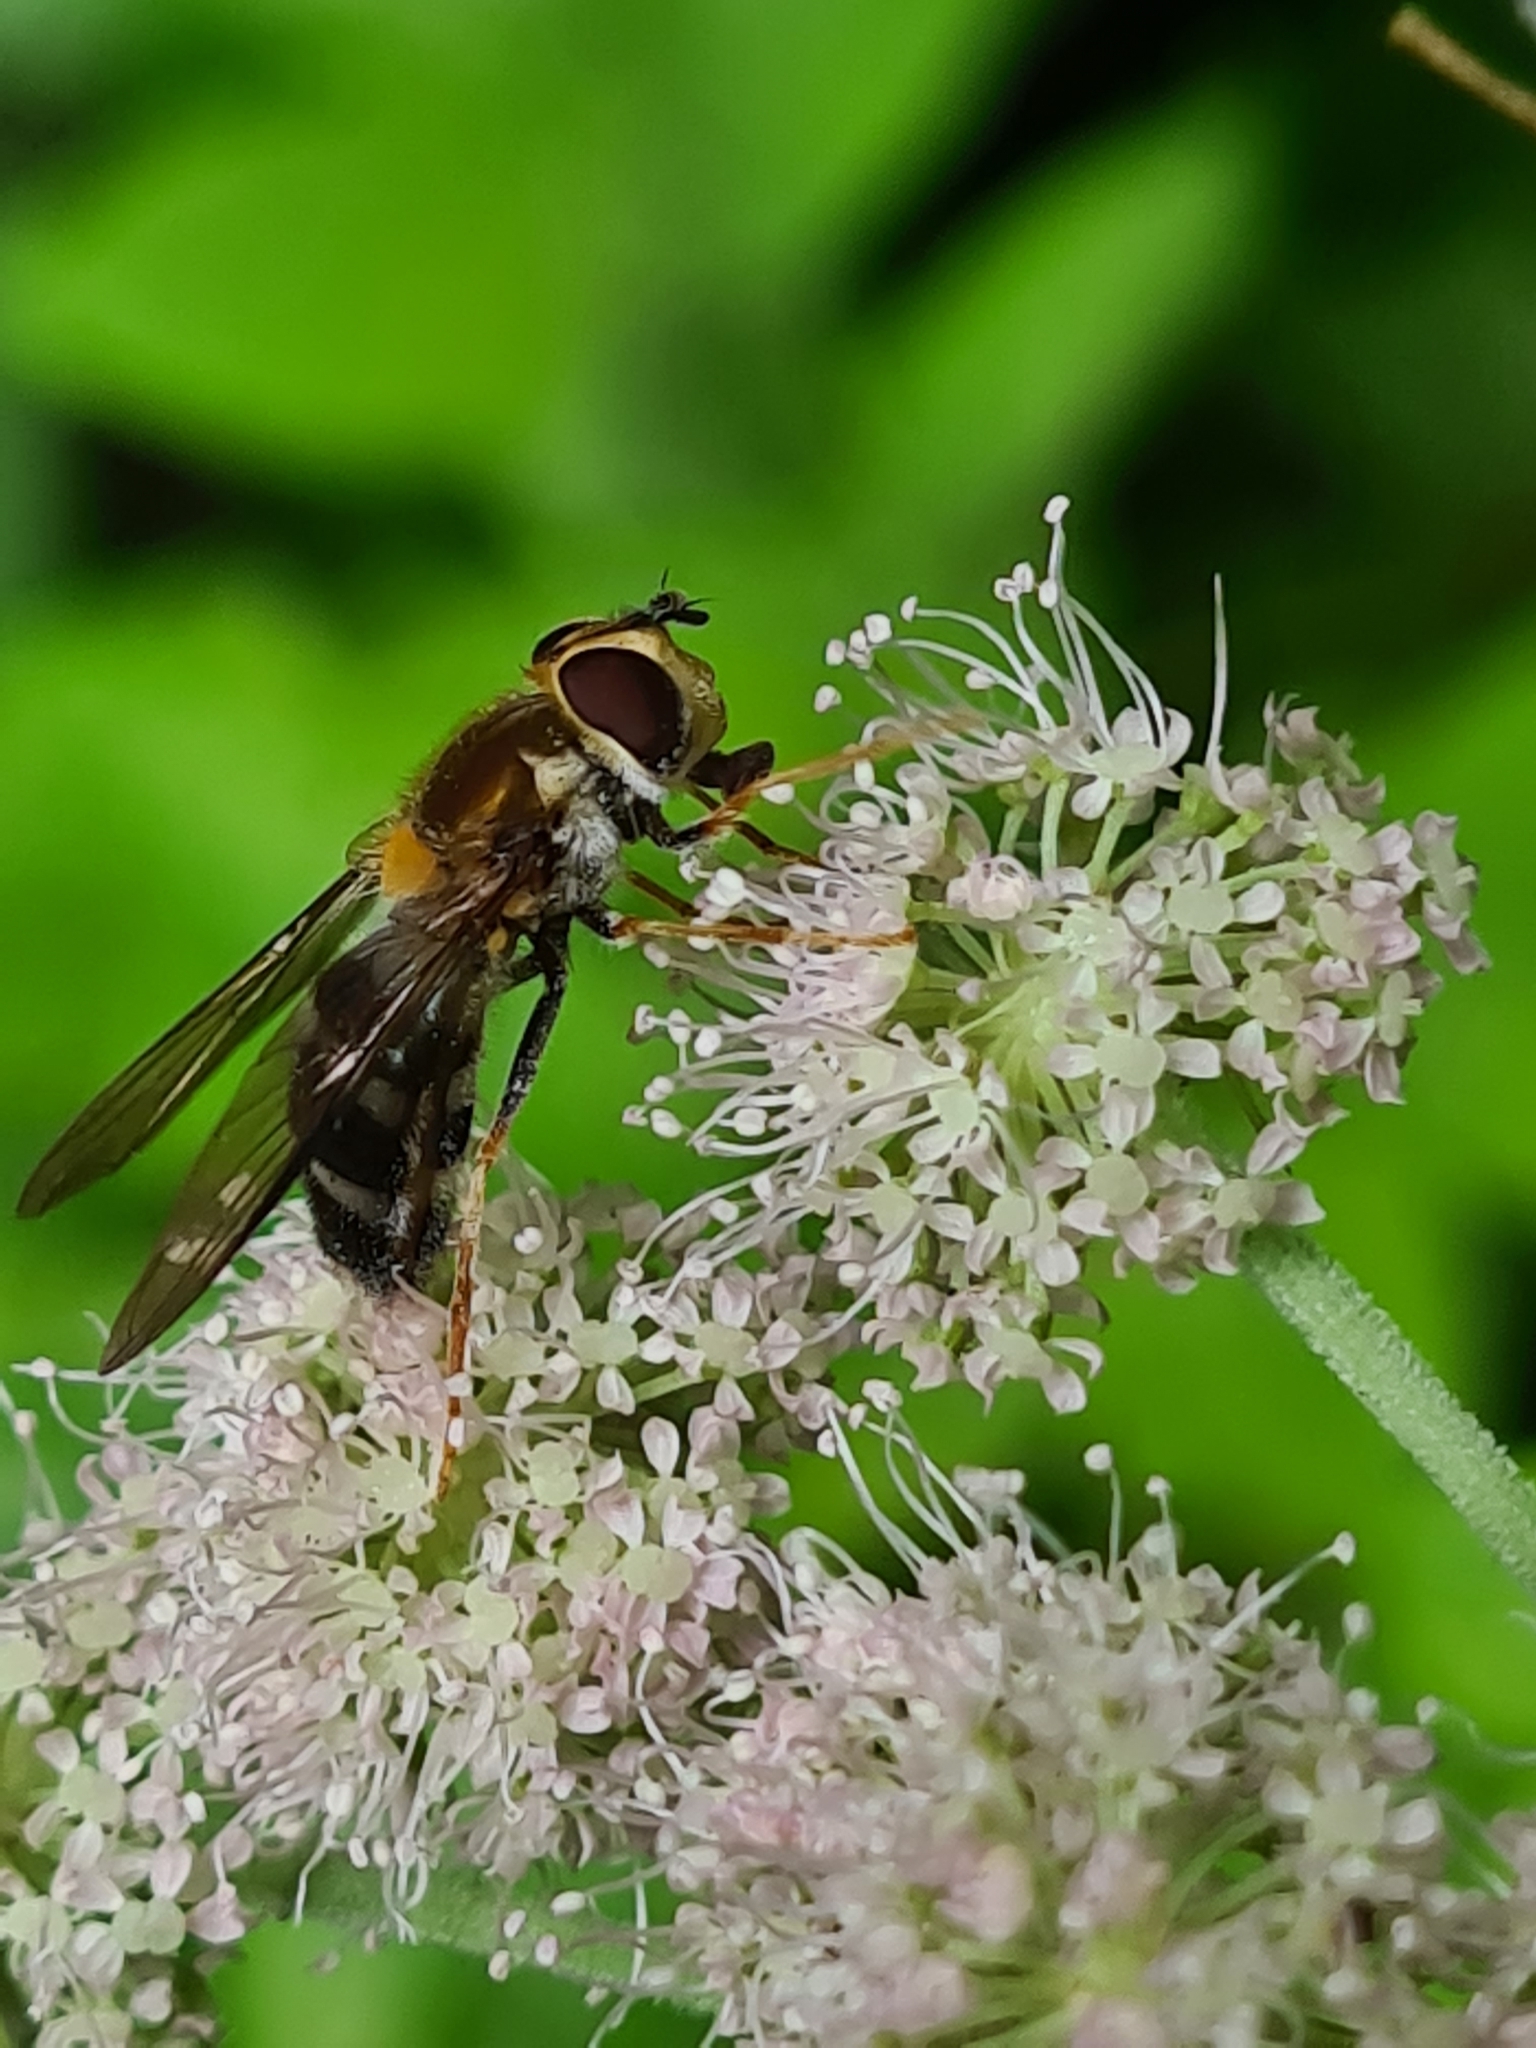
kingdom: Animalia
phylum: Arthropoda
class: Insecta
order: Diptera
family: Syrphidae
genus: Leucozona
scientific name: Leucozona glaucia
